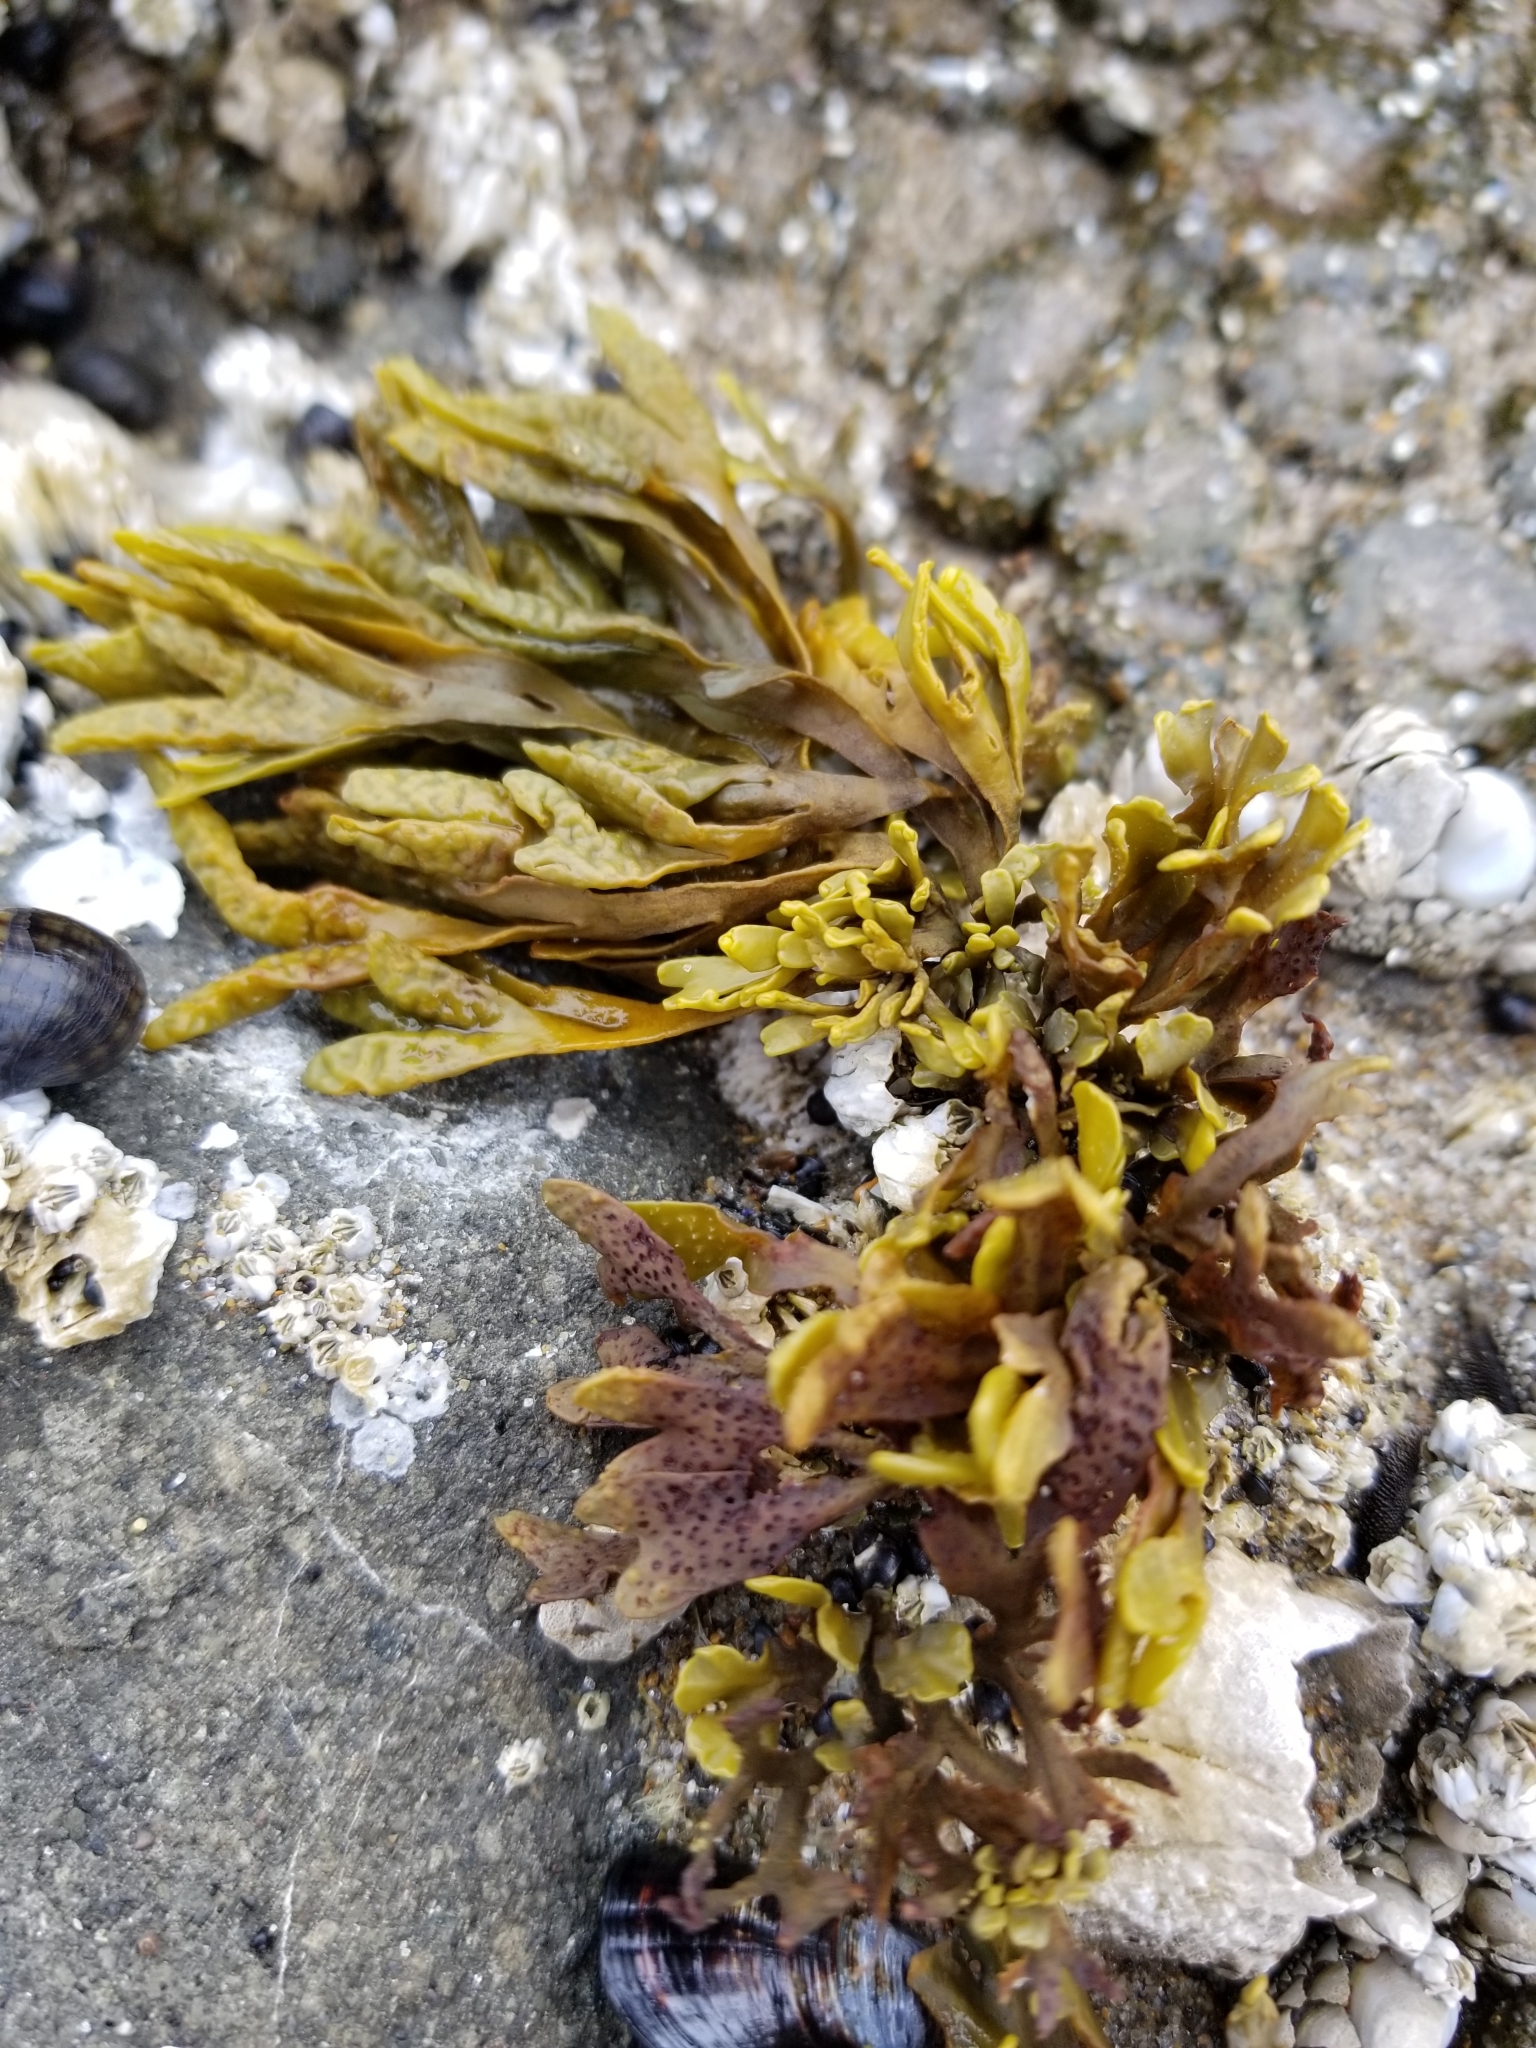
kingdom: Chromista
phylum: Ochrophyta
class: Phaeophyceae
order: Fucales
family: Fucaceae
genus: Pelvetiopsis
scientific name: Pelvetiopsis limitata
